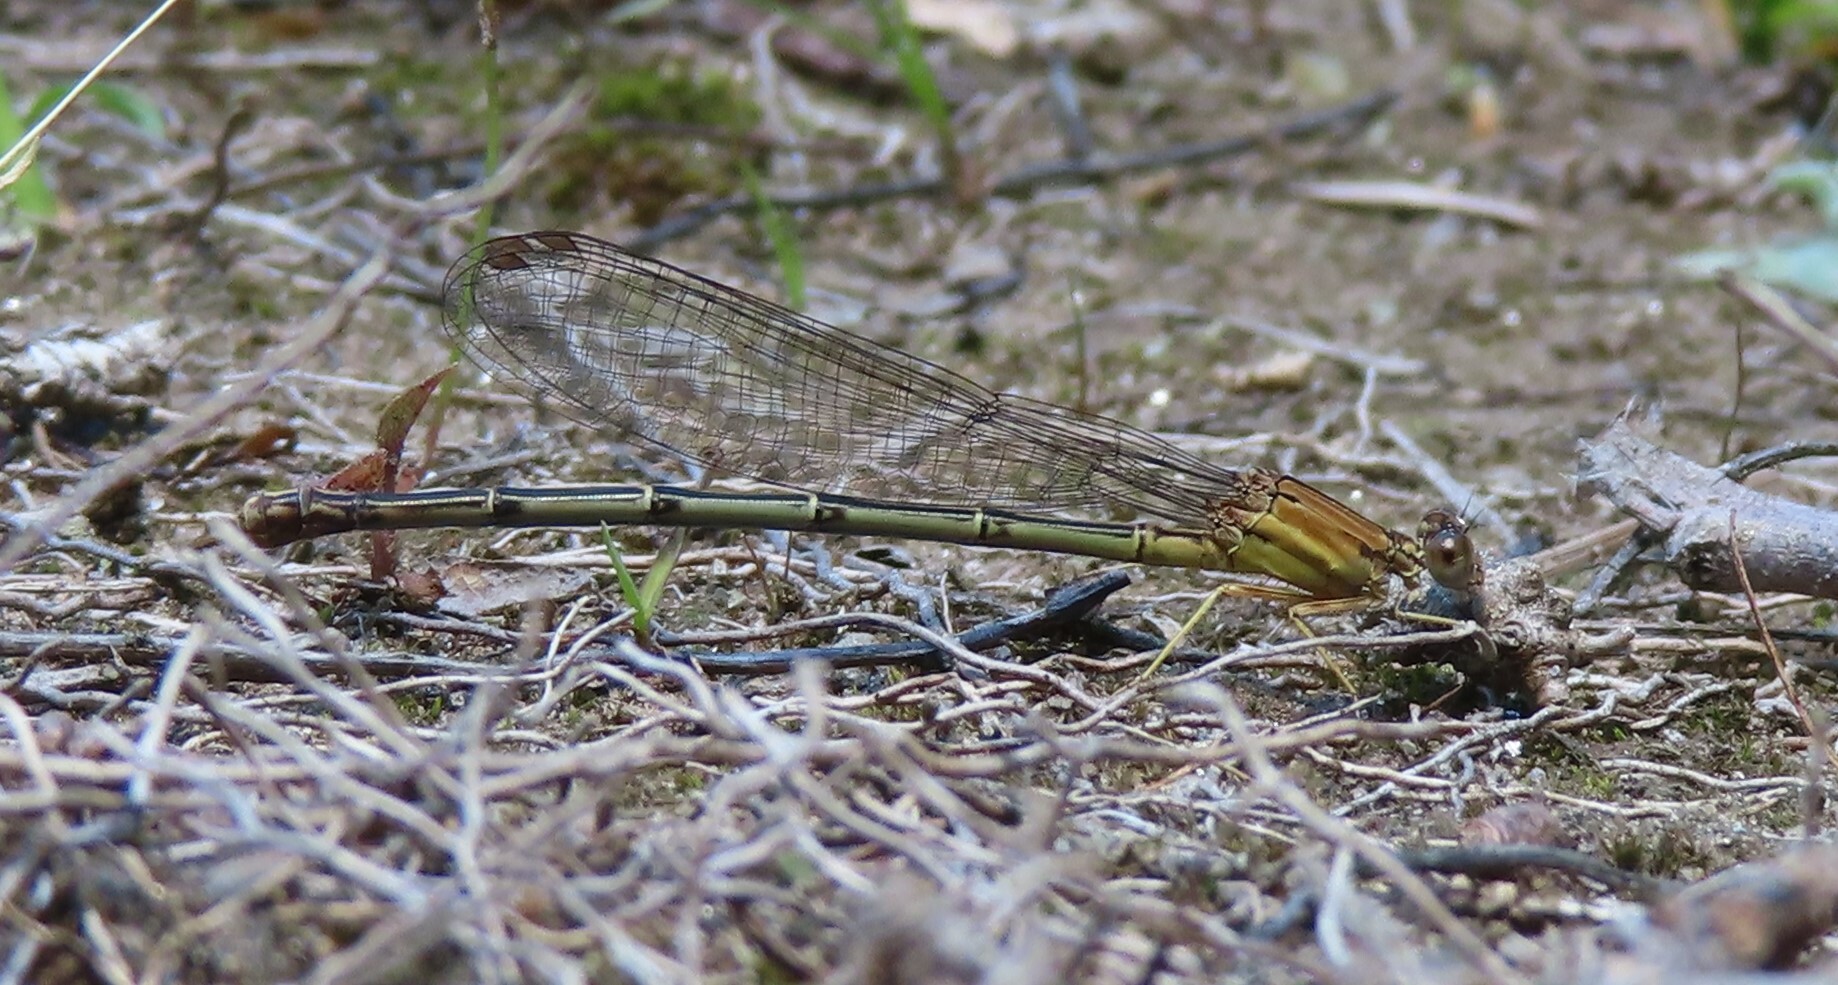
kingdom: Animalia
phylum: Arthropoda
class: Insecta
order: Odonata
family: Coenagrionidae
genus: Argia
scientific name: Argia apicalis
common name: Blue-fronted dancer
